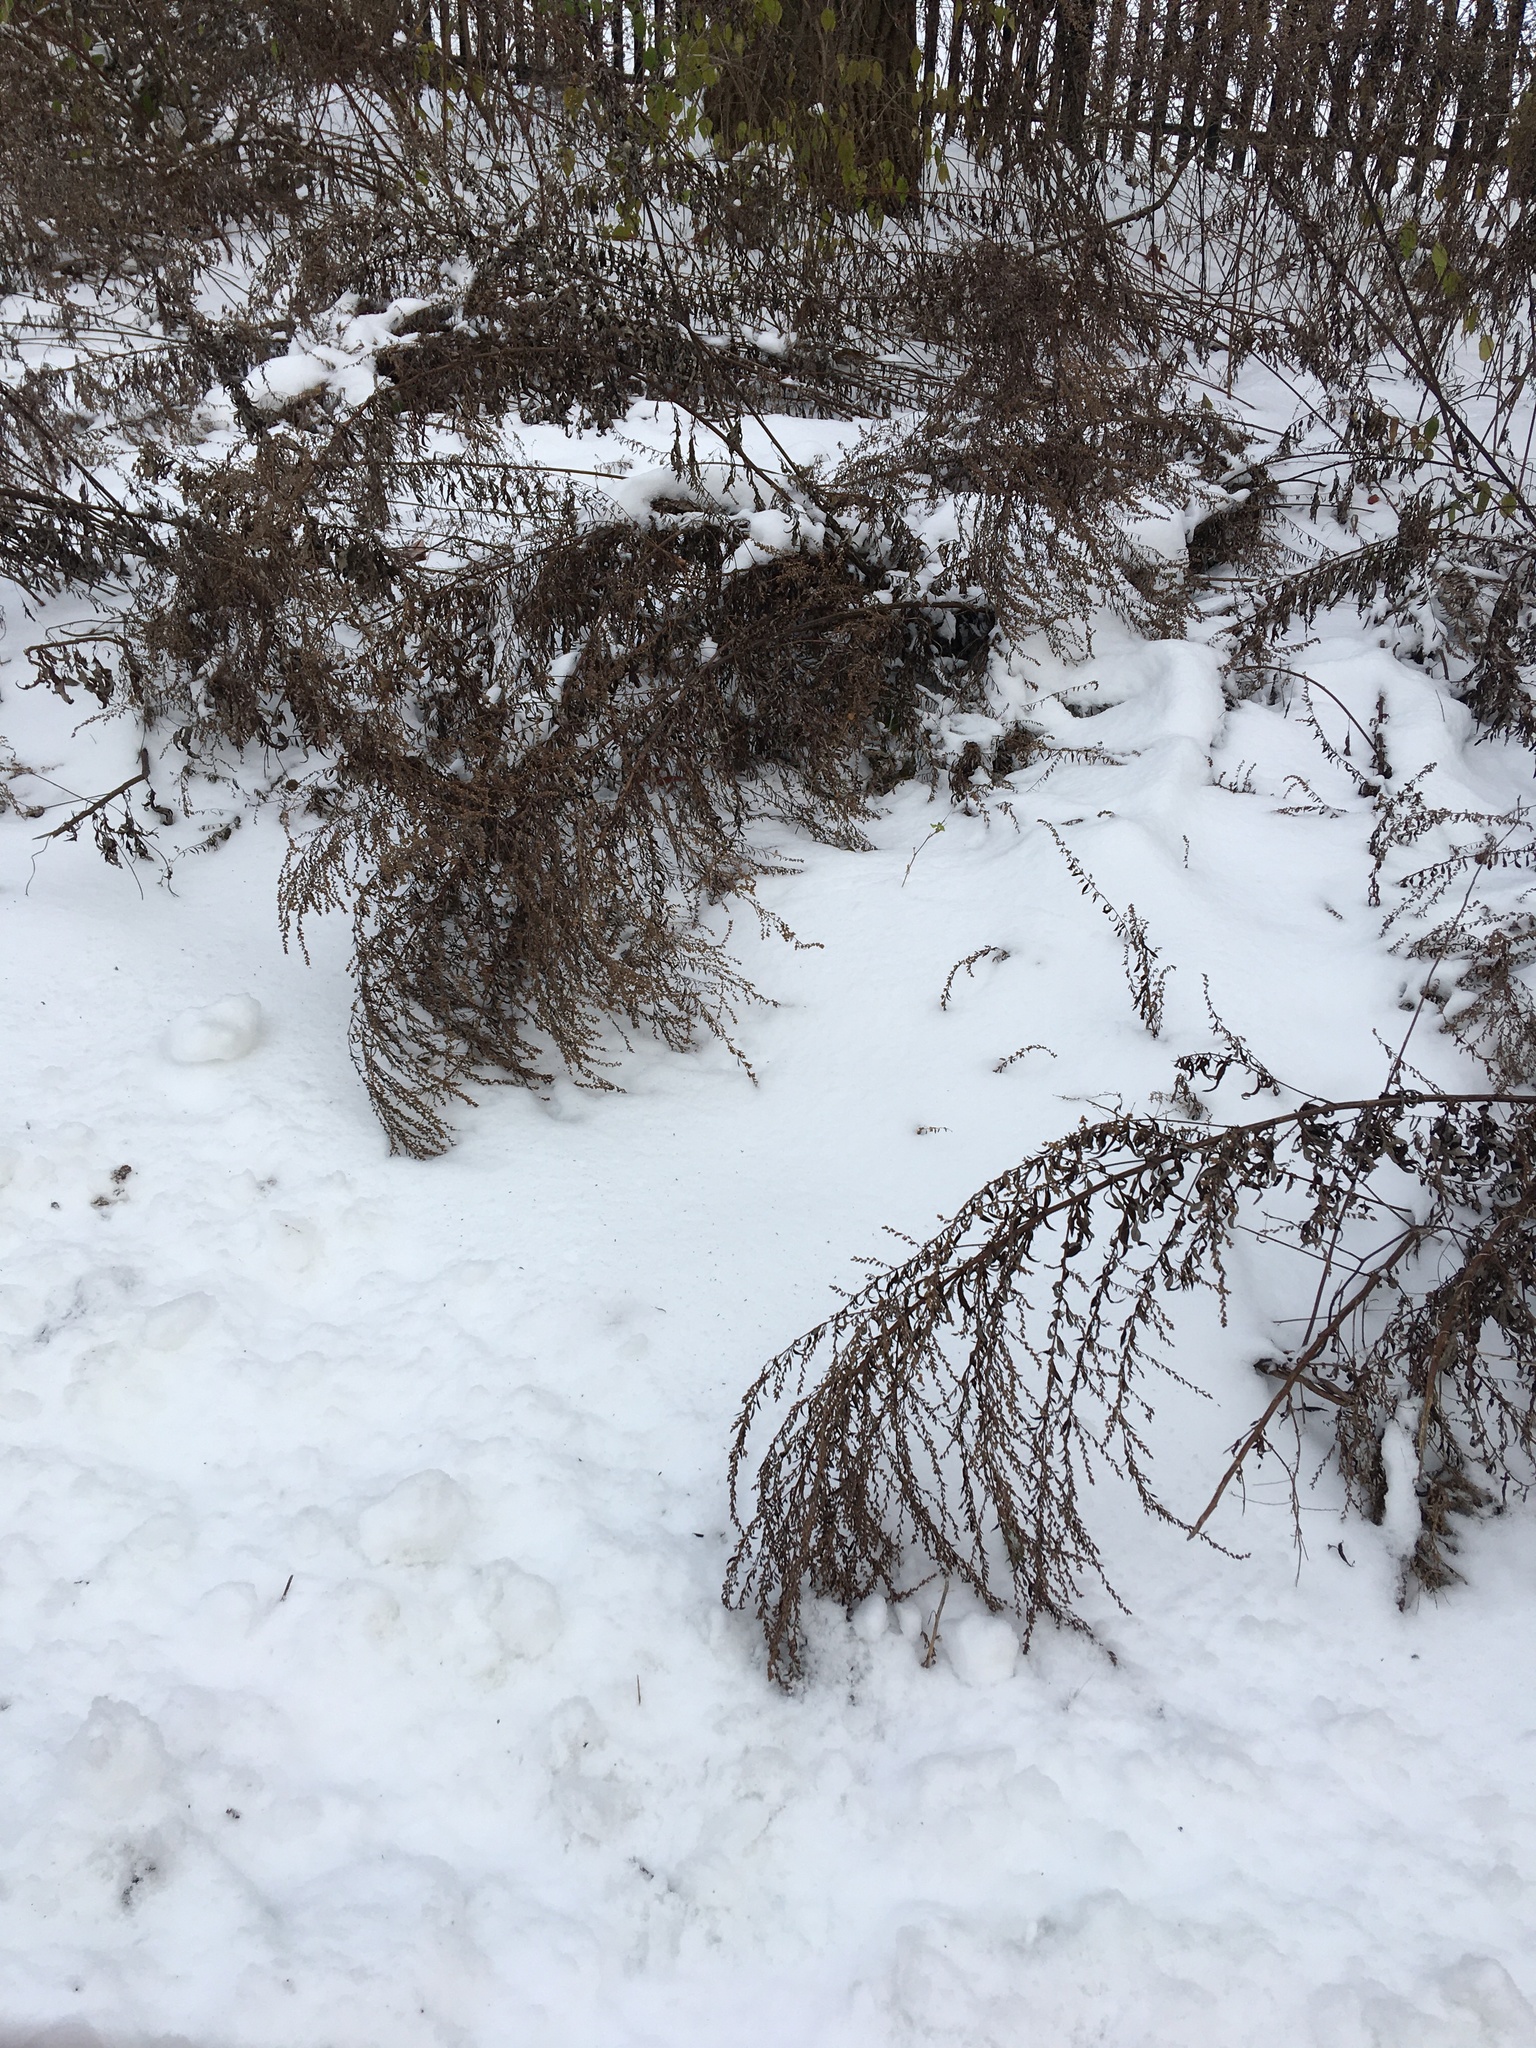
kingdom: Plantae
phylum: Tracheophyta
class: Magnoliopsida
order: Asterales
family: Asteraceae
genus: Artemisia
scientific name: Artemisia vulgaris
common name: Mugwort
